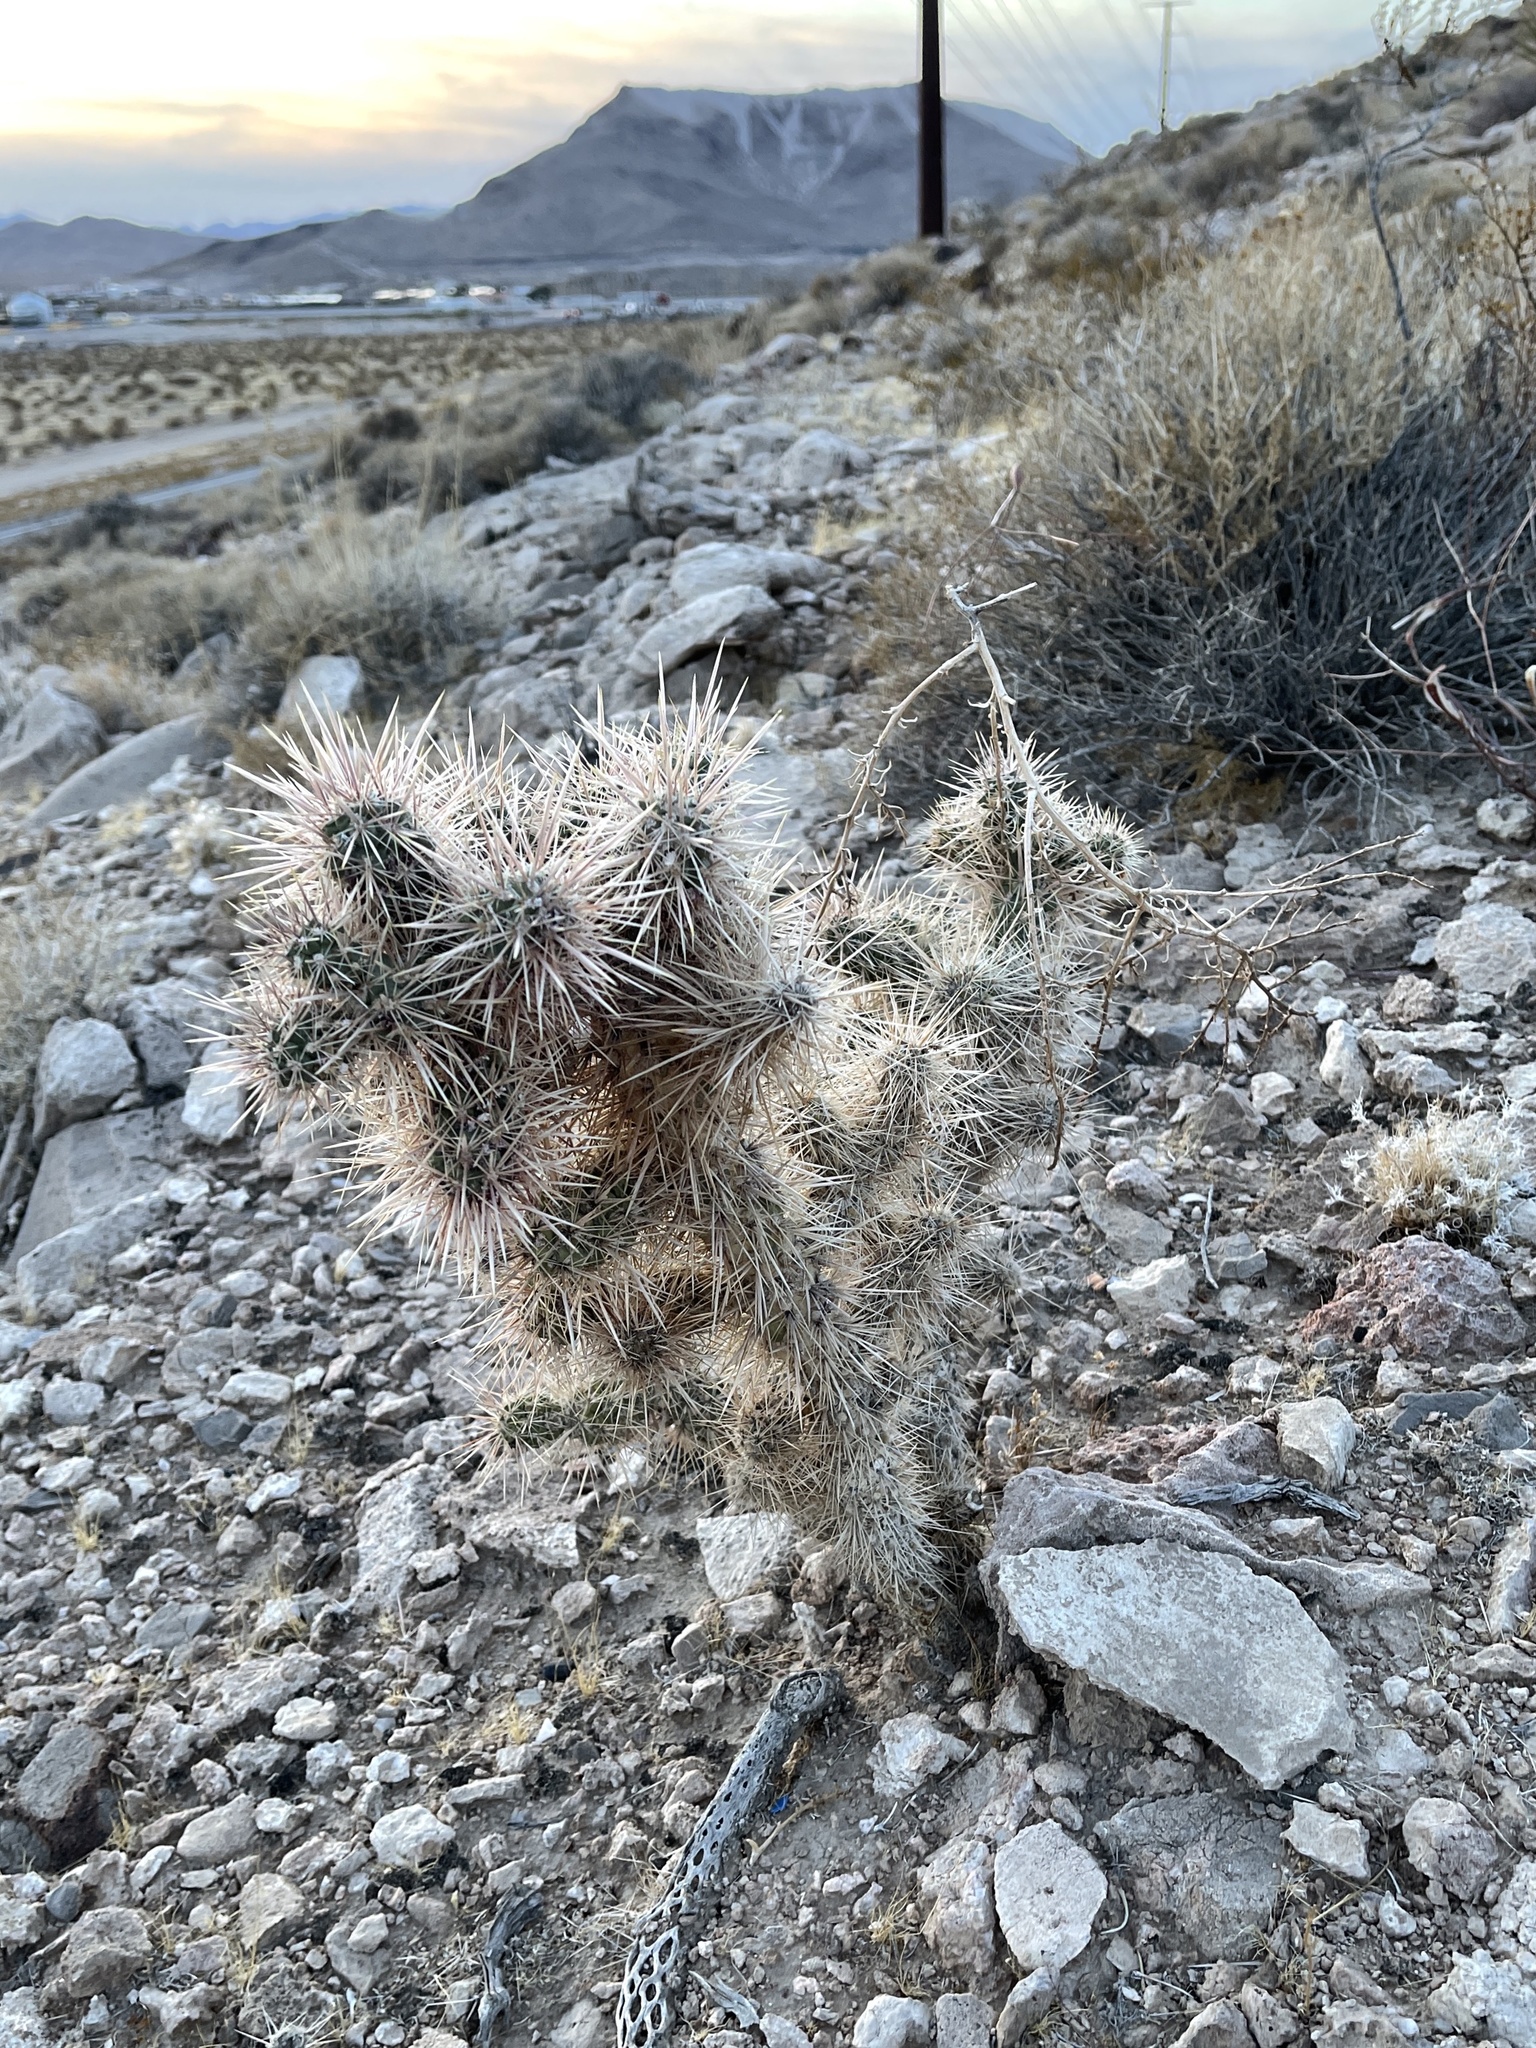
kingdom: Plantae
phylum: Tracheophyta
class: Magnoliopsida
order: Caryophyllales
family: Cactaceae
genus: Cylindropuntia
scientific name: Cylindropuntia echinocarpa
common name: Ground cholla
